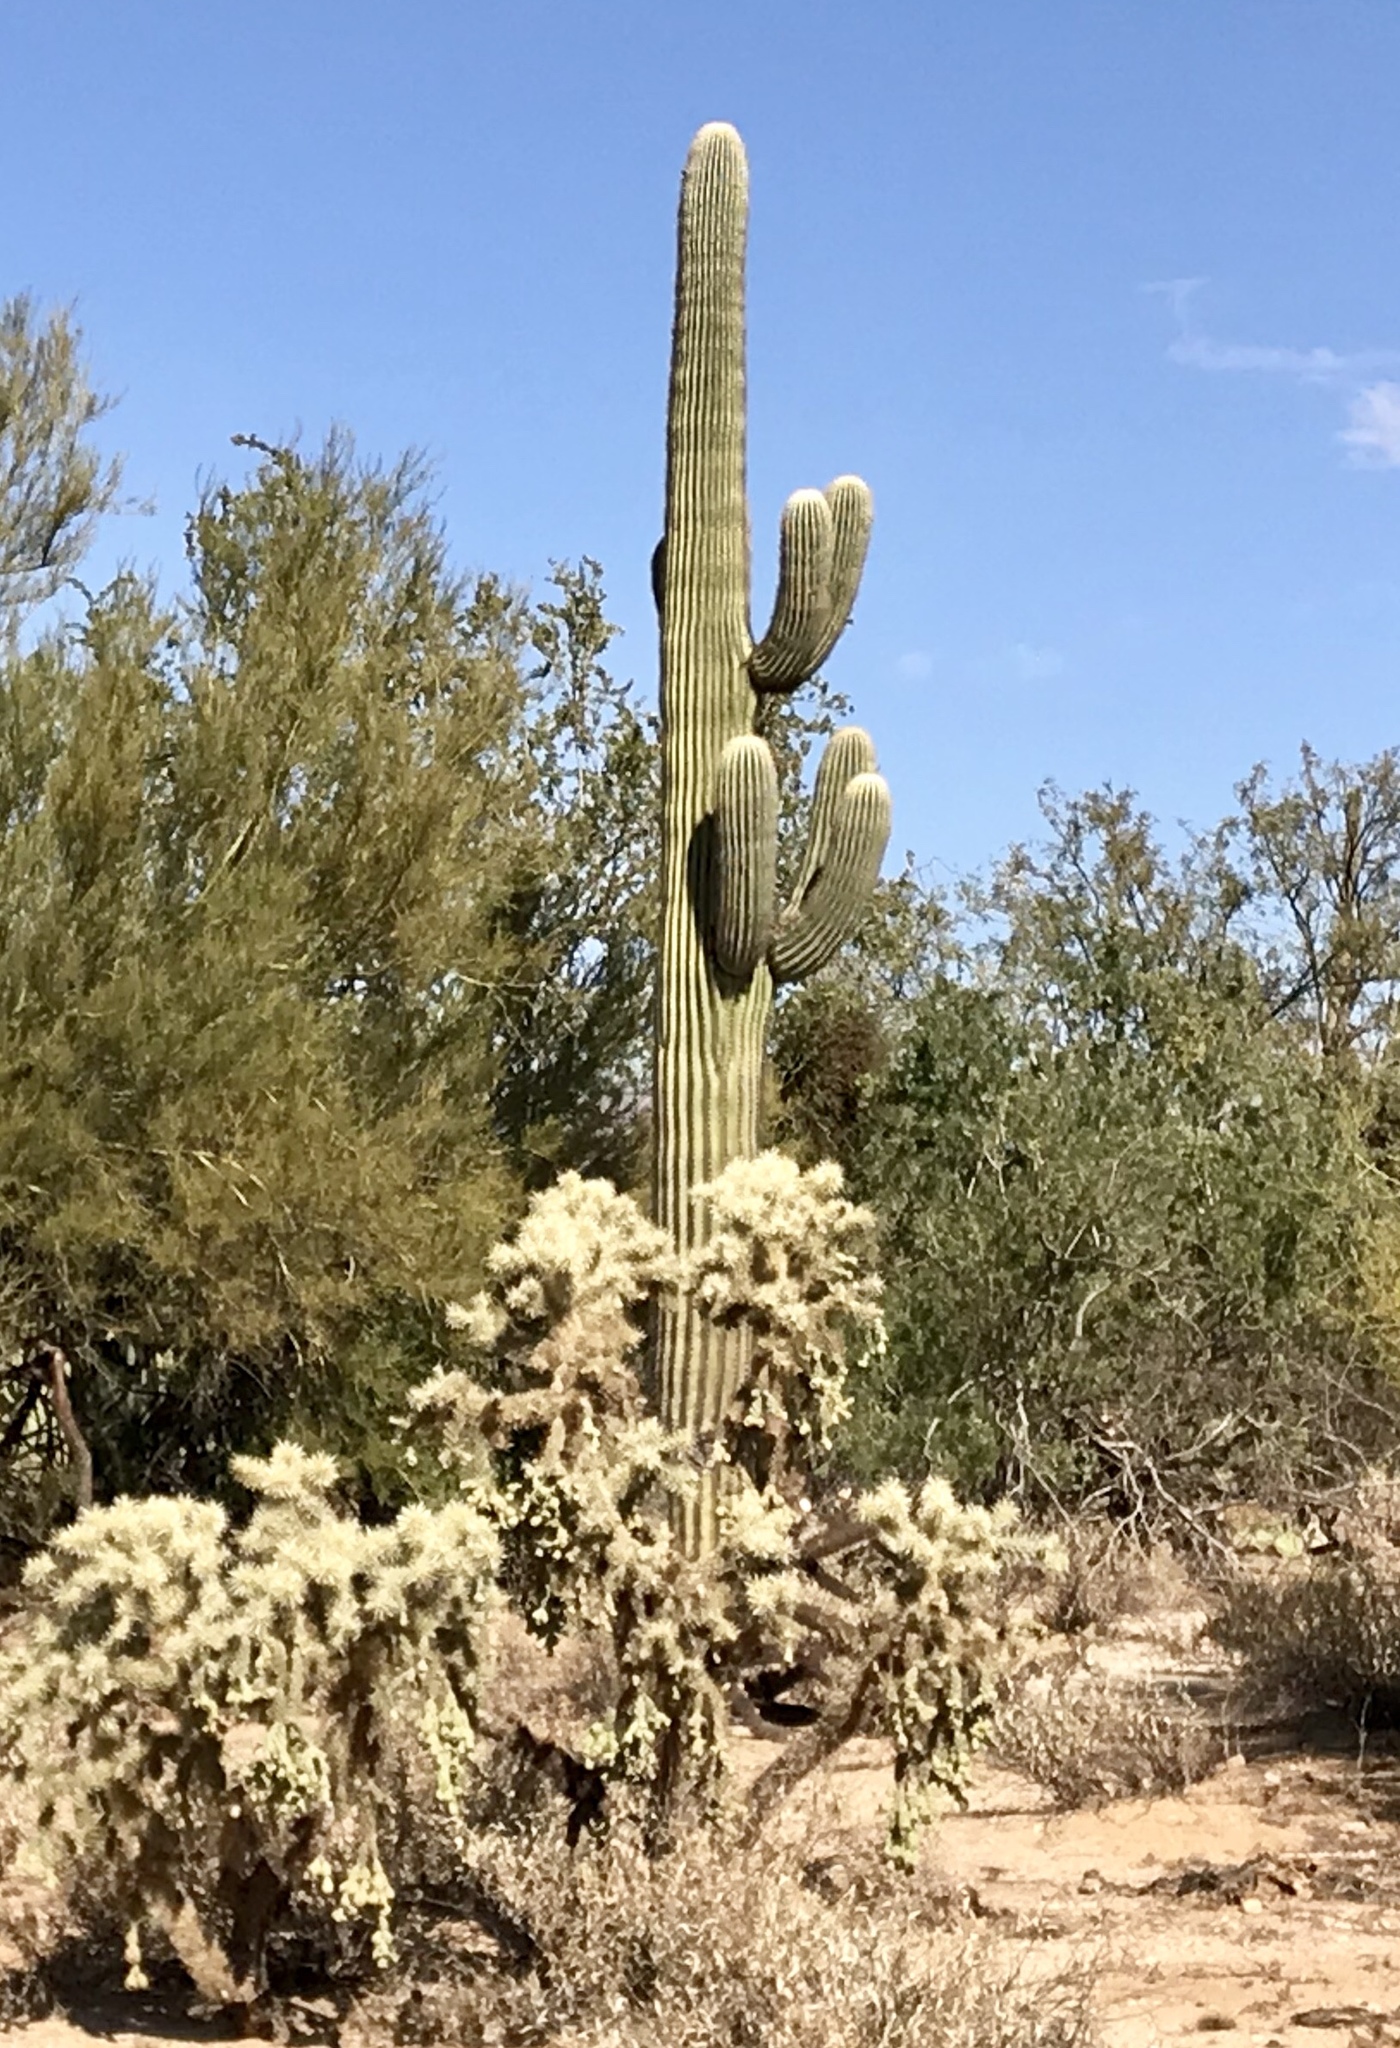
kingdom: Plantae
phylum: Tracheophyta
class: Magnoliopsida
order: Caryophyllales
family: Cactaceae
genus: Carnegiea
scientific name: Carnegiea gigantea
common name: Saguaro
